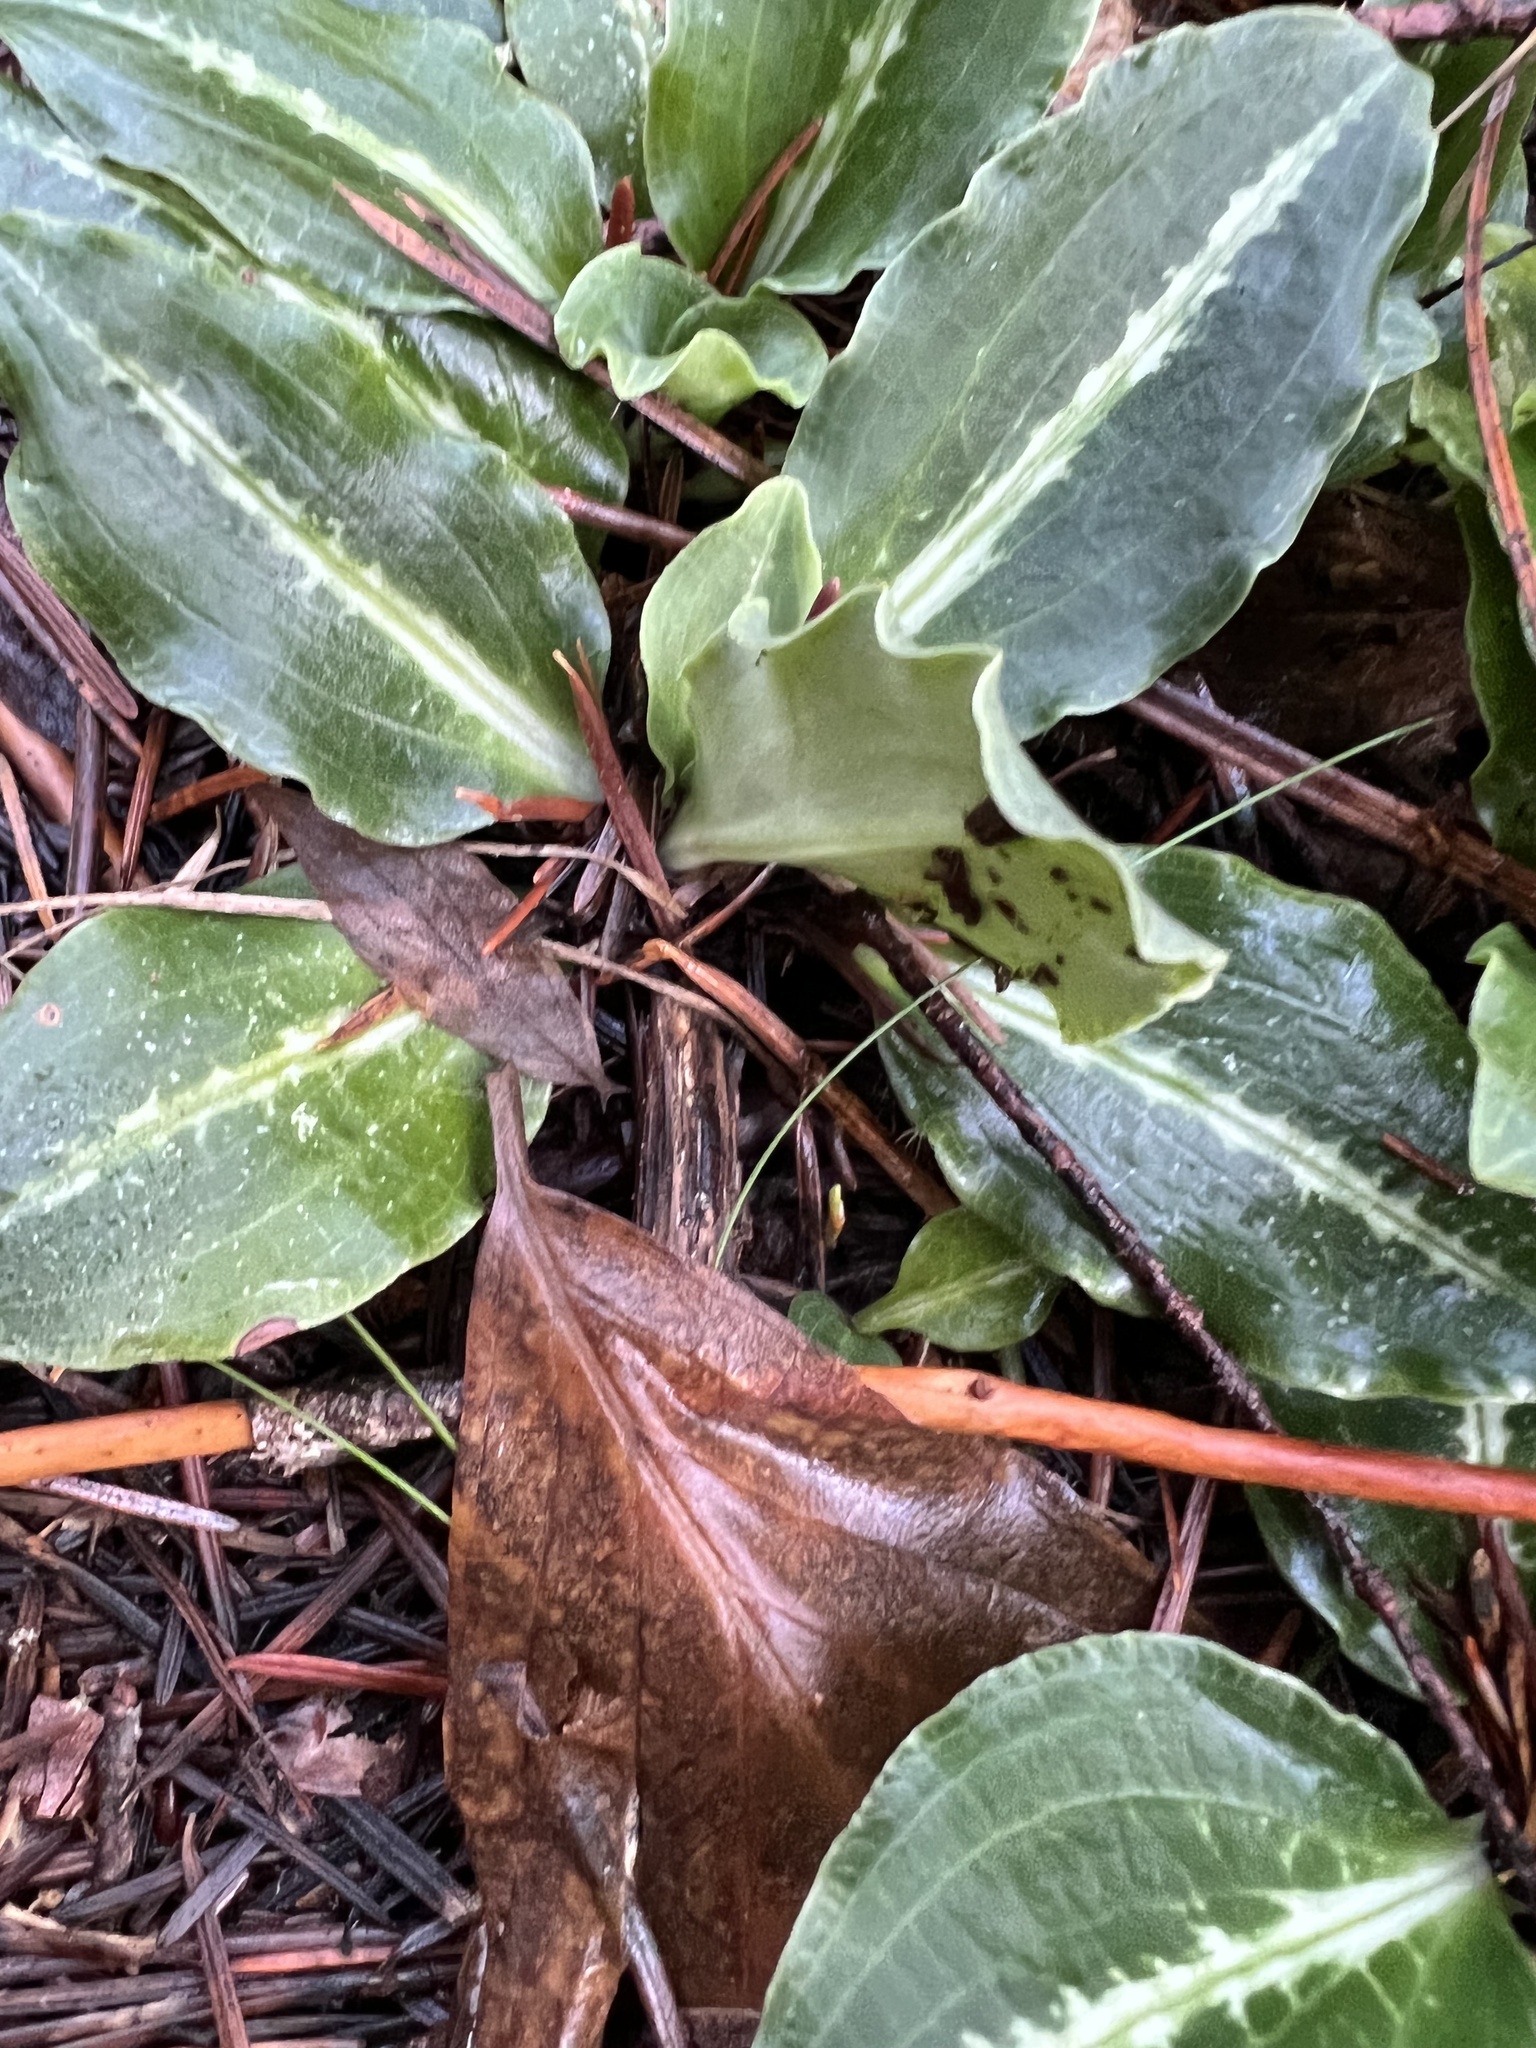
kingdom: Plantae
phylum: Tracheophyta
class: Liliopsida
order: Asparagales
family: Orchidaceae
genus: Goodyera
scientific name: Goodyera oblongifolia
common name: Giant rattlesnake-plantain
